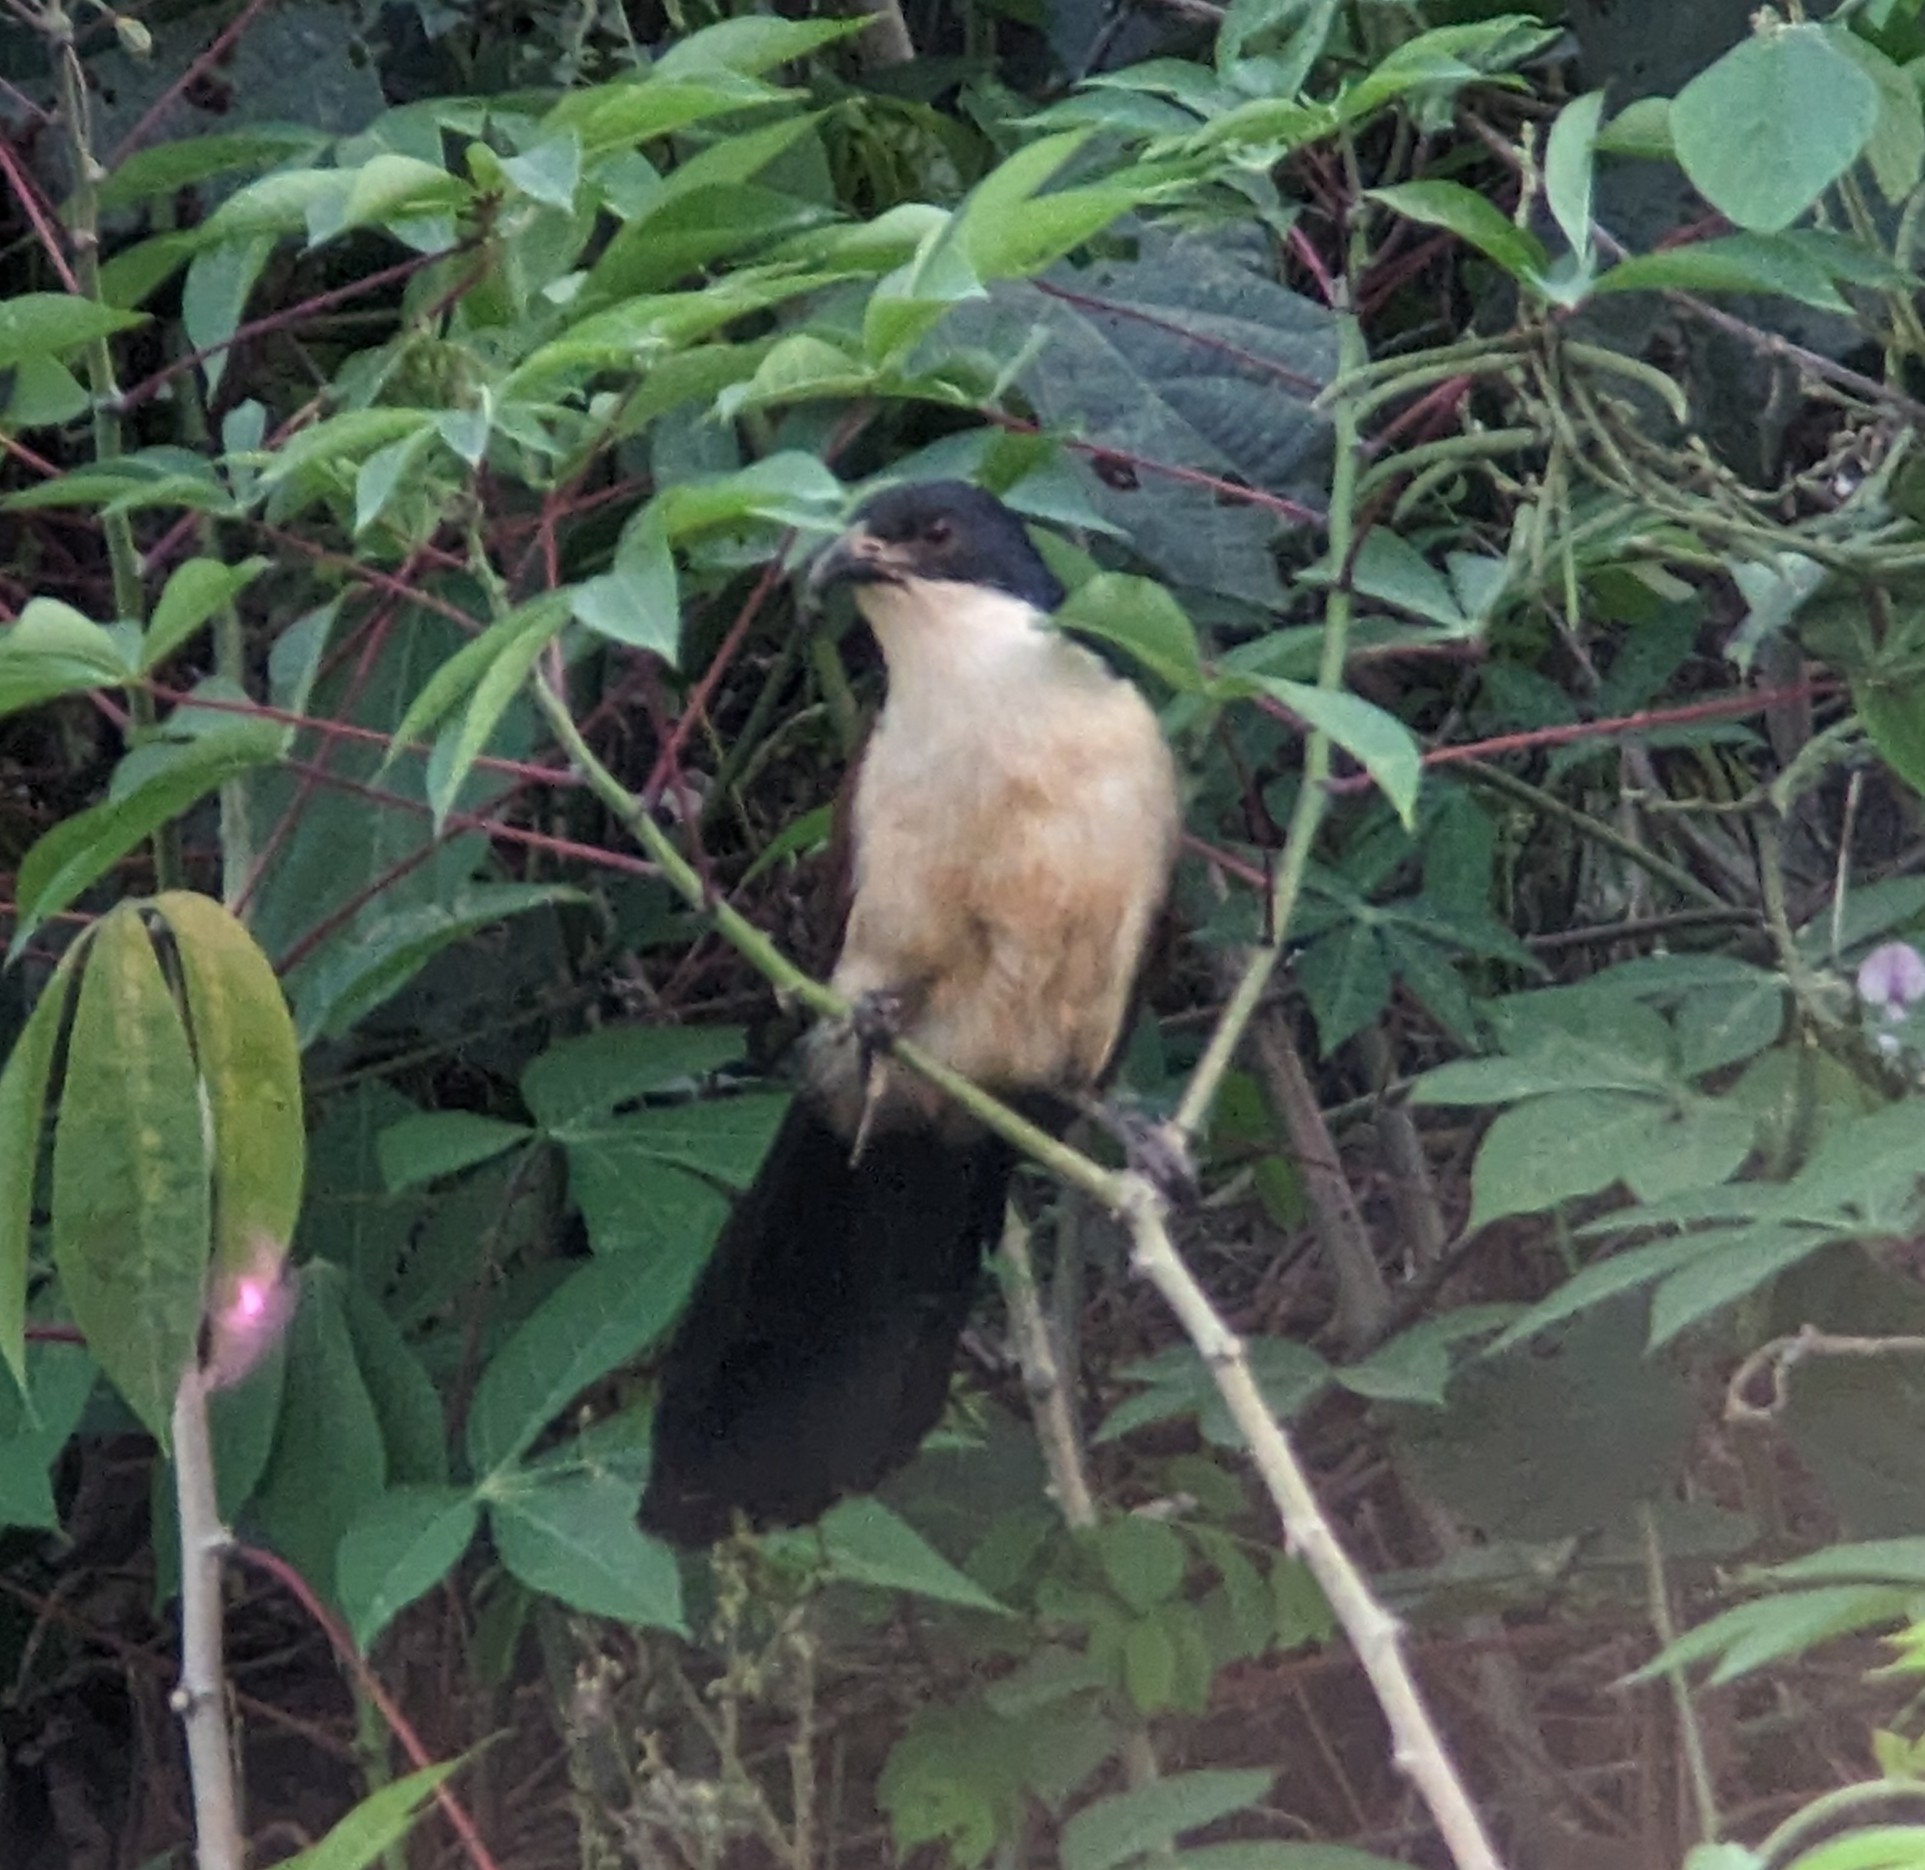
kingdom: Animalia
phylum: Chordata
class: Aves
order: Cuculiformes
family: Cuculidae
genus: Centropus
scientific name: Centropus monachus
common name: Blue-headed coucal
